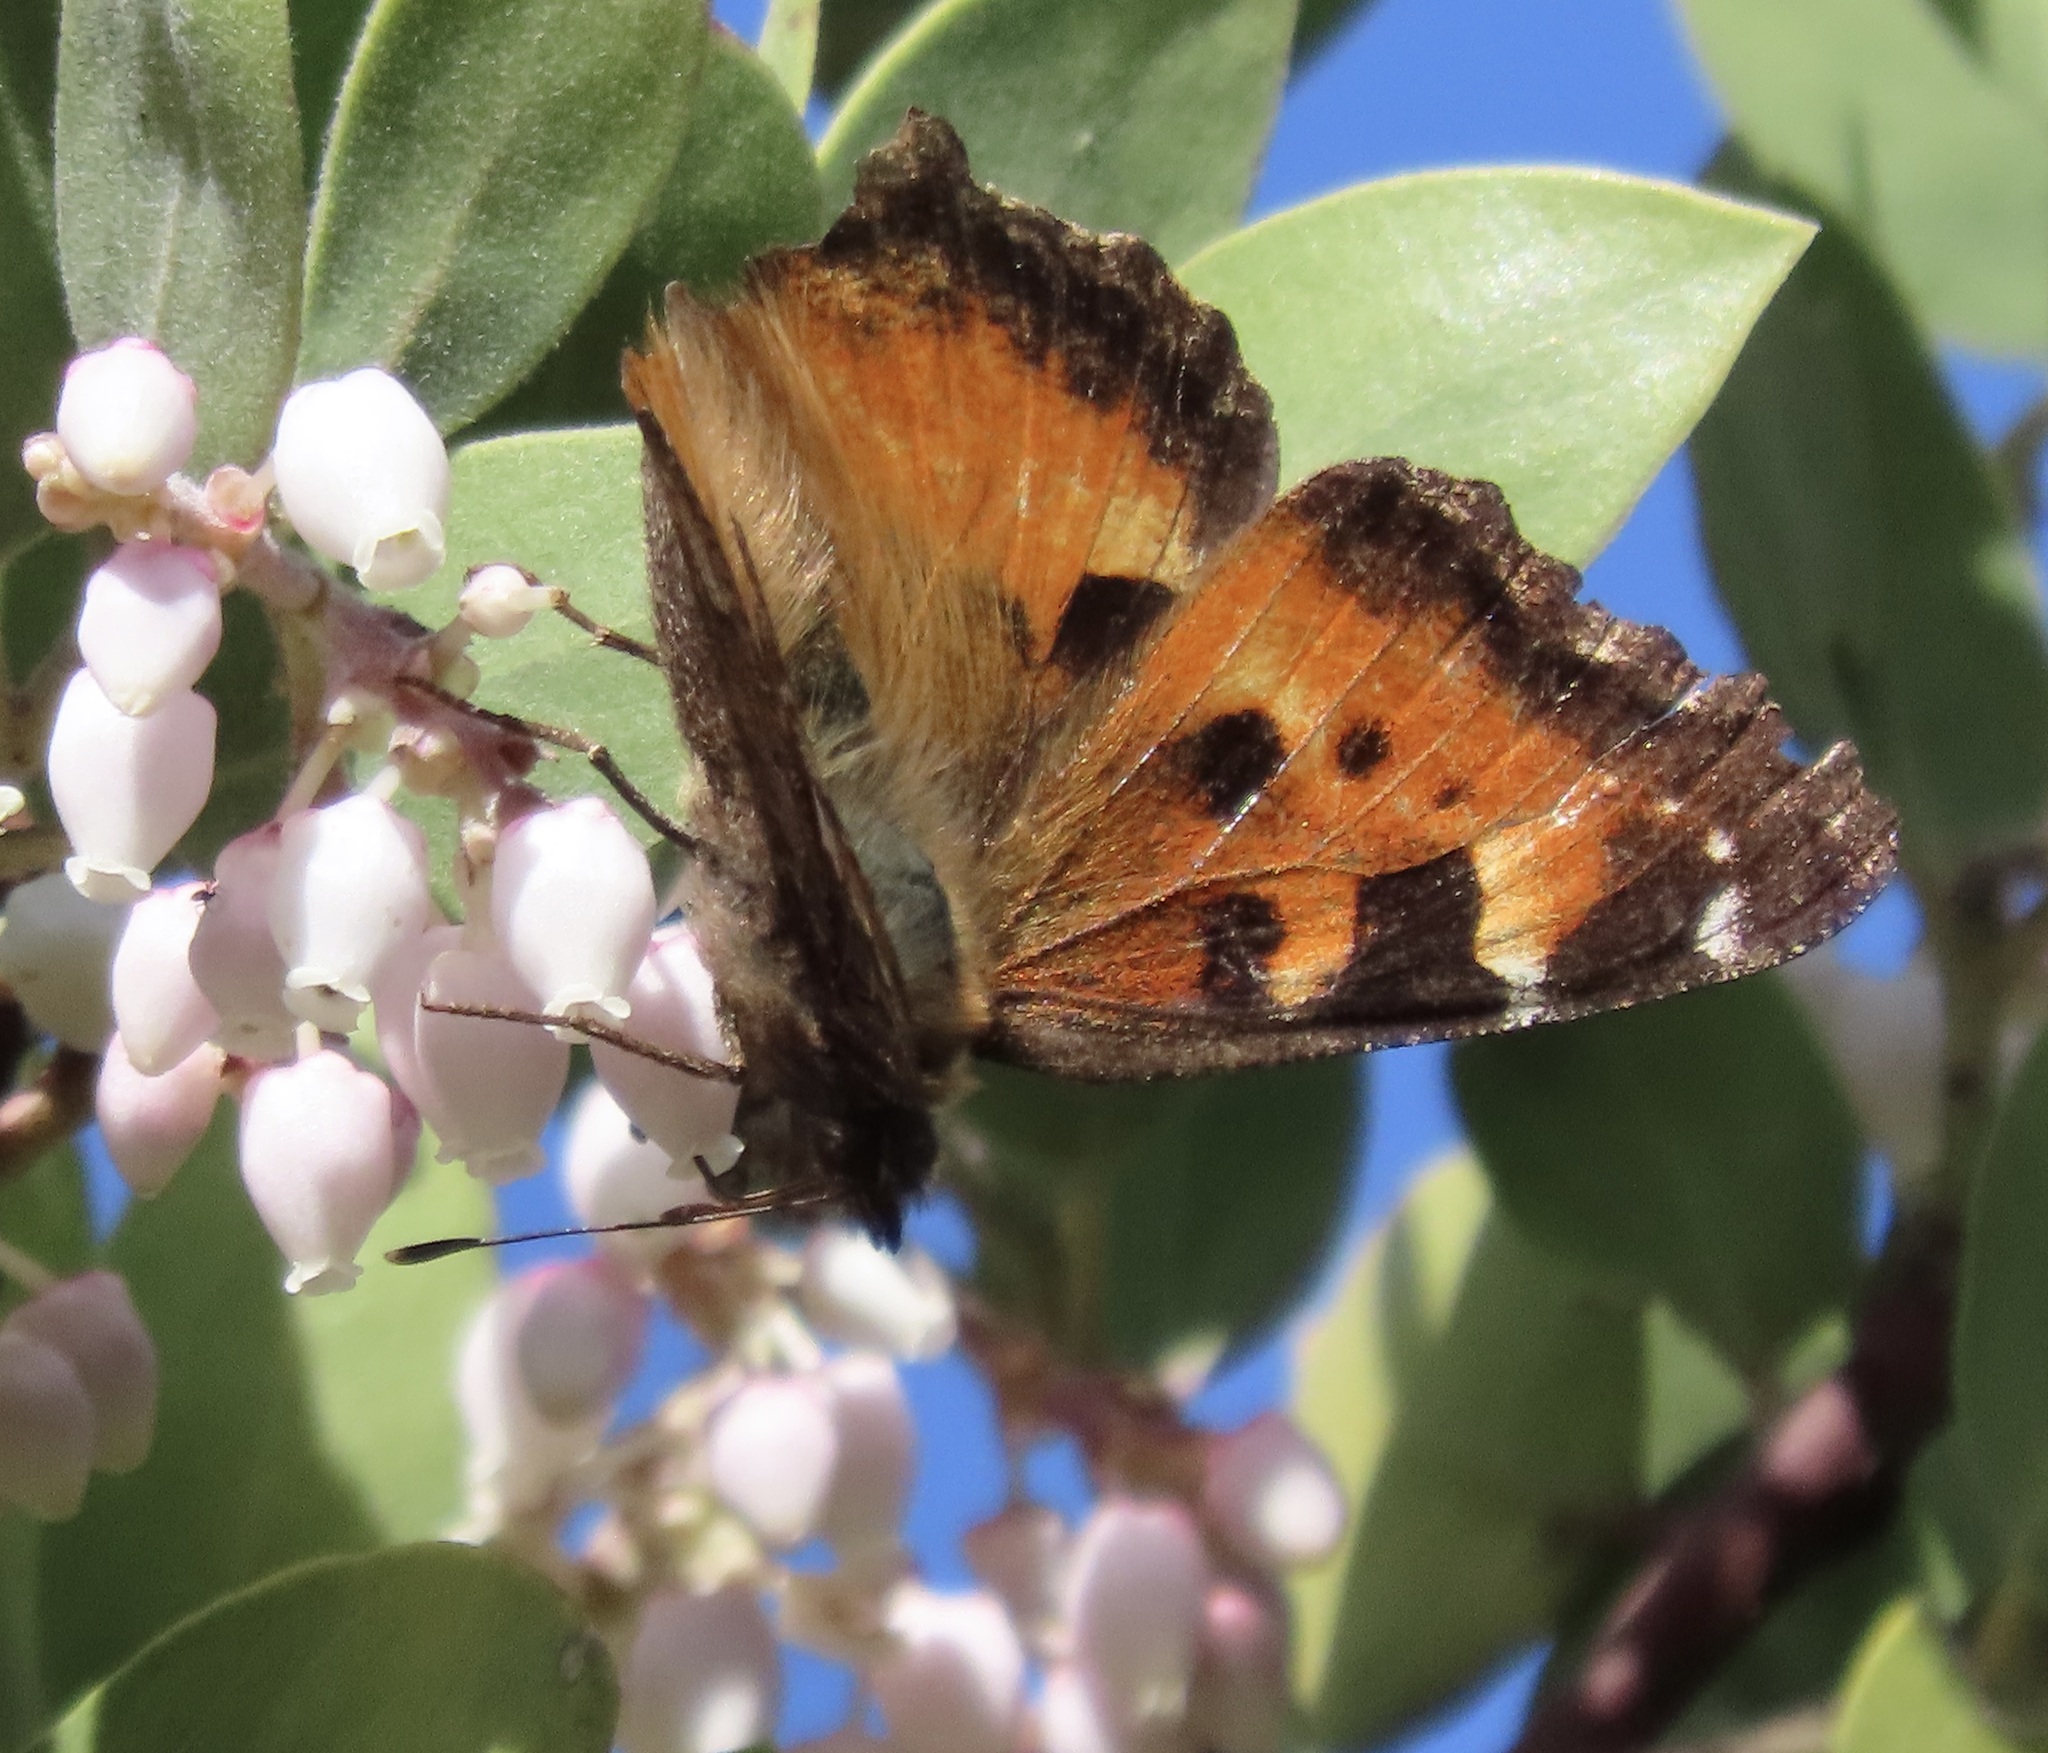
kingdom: Animalia
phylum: Arthropoda
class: Insecta
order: Lepidoptera
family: Nymphalidae
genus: Nymphalis
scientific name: Nymphalis californica
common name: California tortoiseshell
